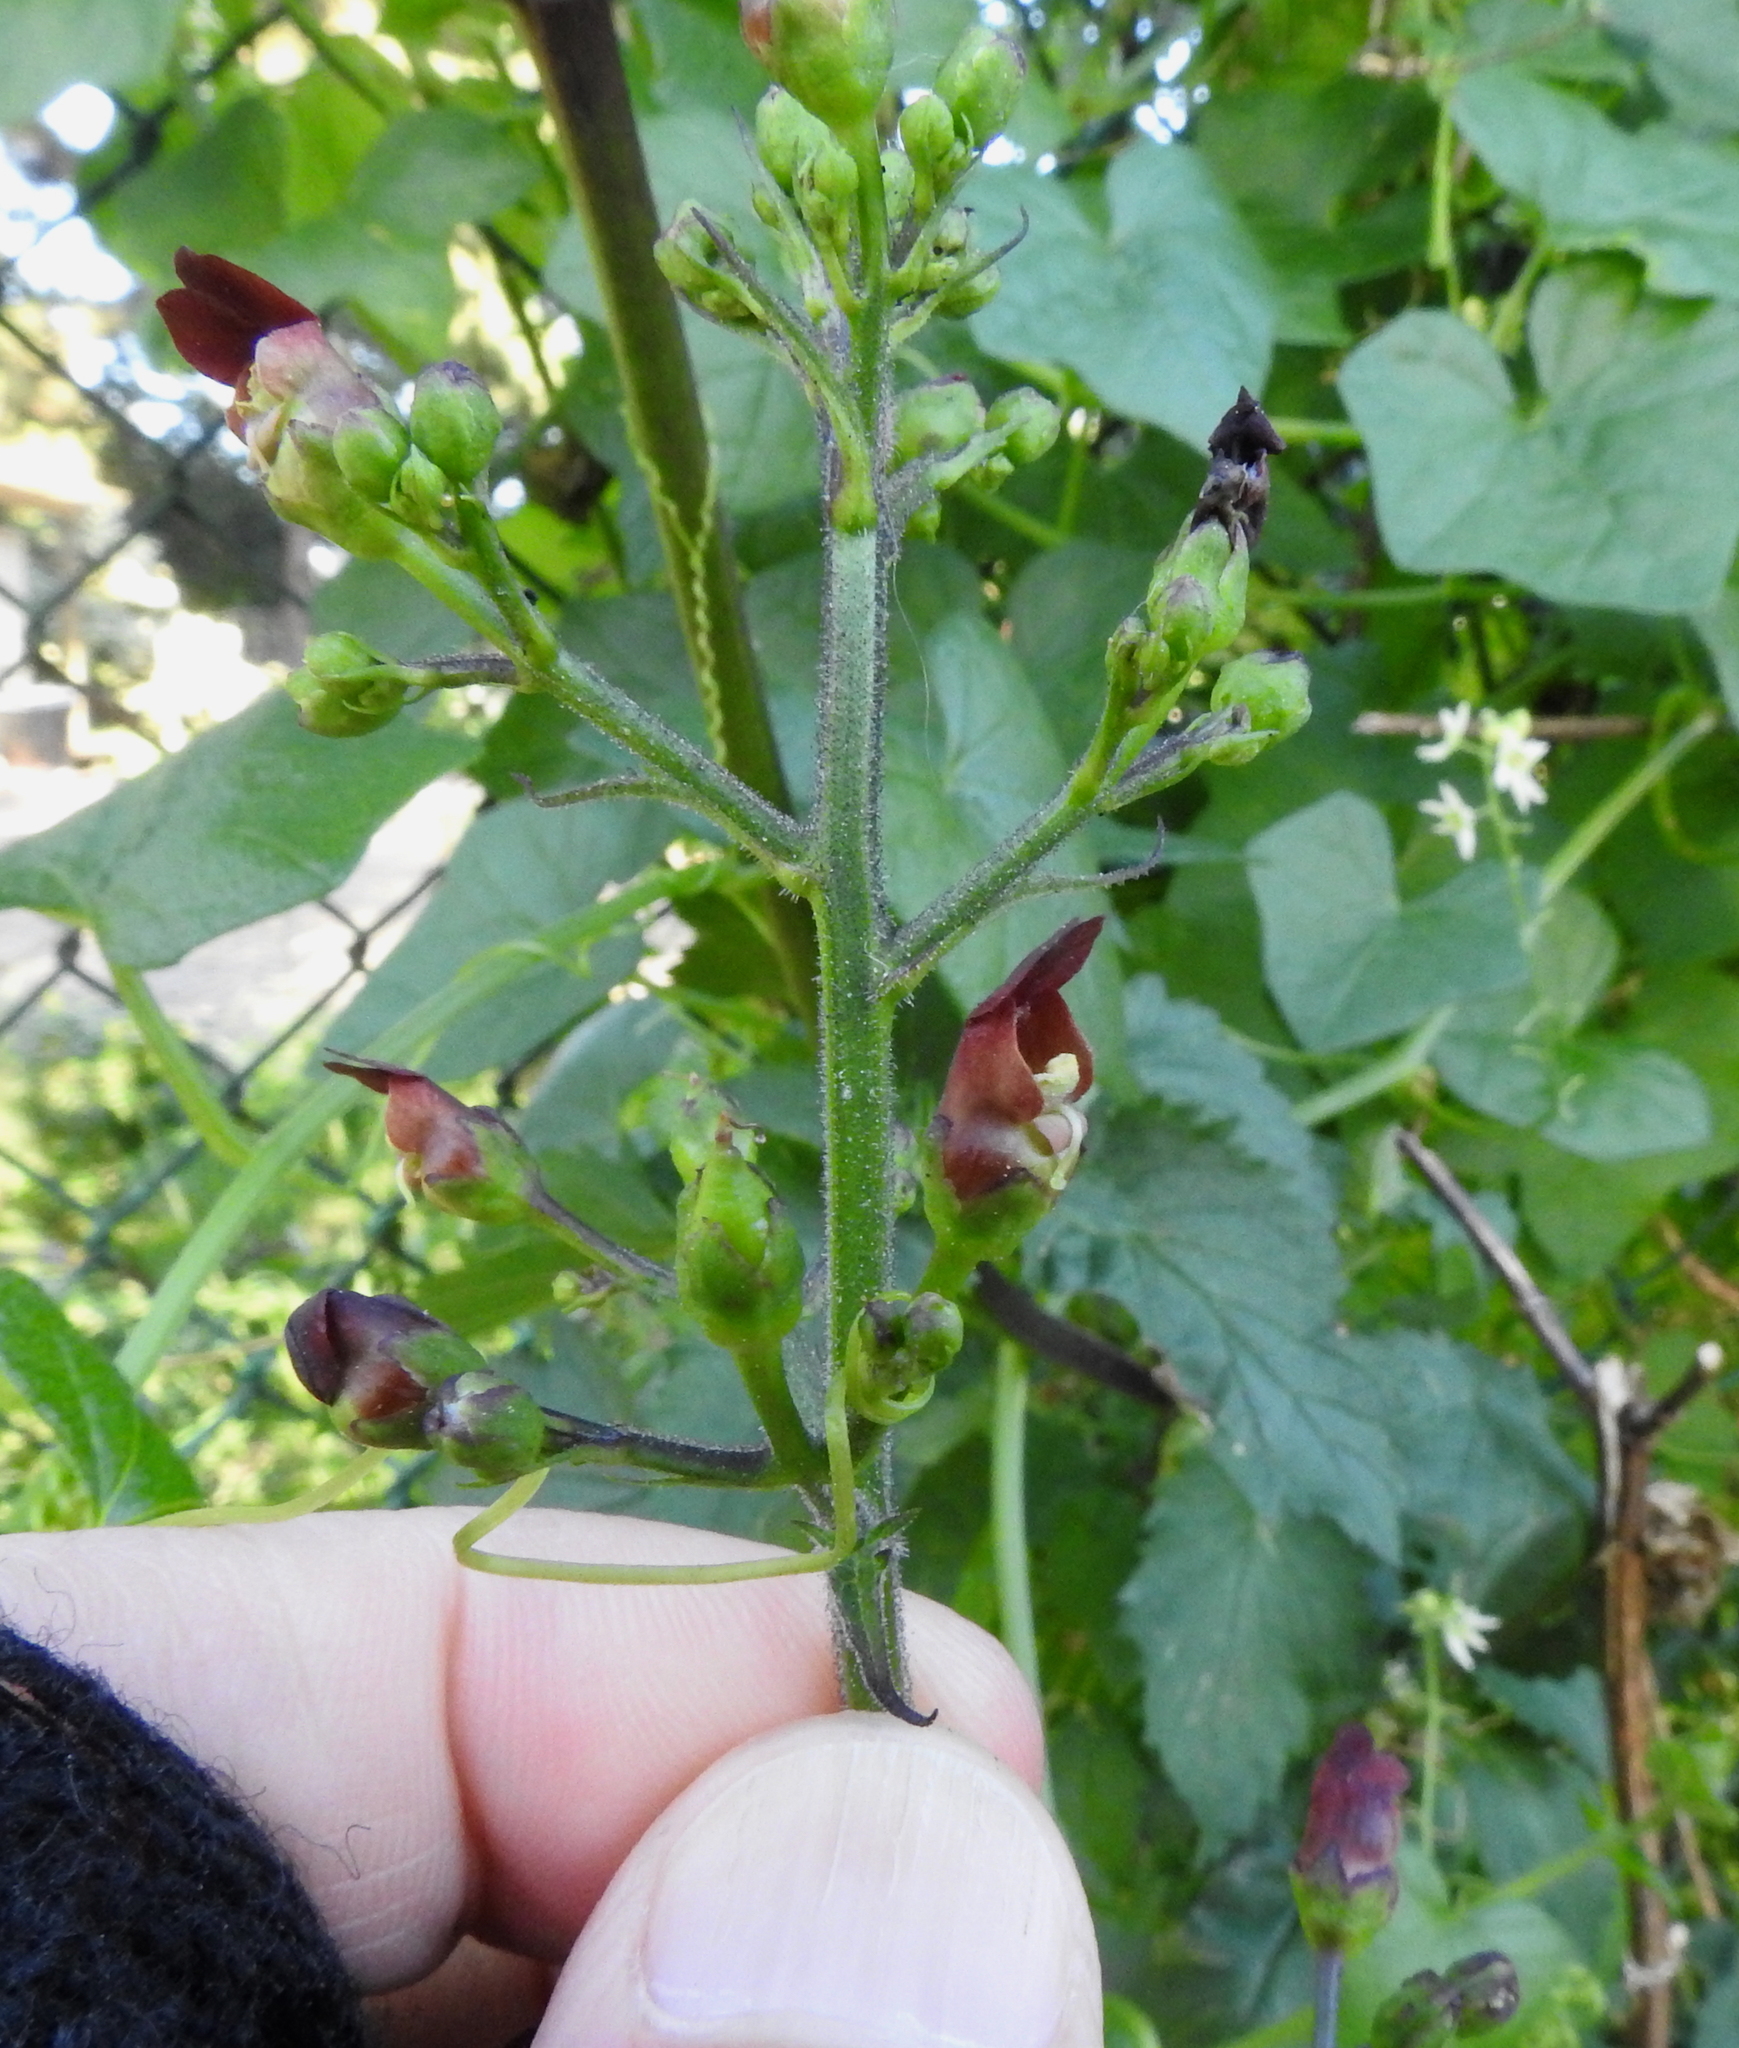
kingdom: Plantae
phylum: Tracheophyta
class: Magnoliopsida
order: Lamiales
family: Scrophulariaceae
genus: Scrophularia
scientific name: Scrophularia californica
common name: California figwort
